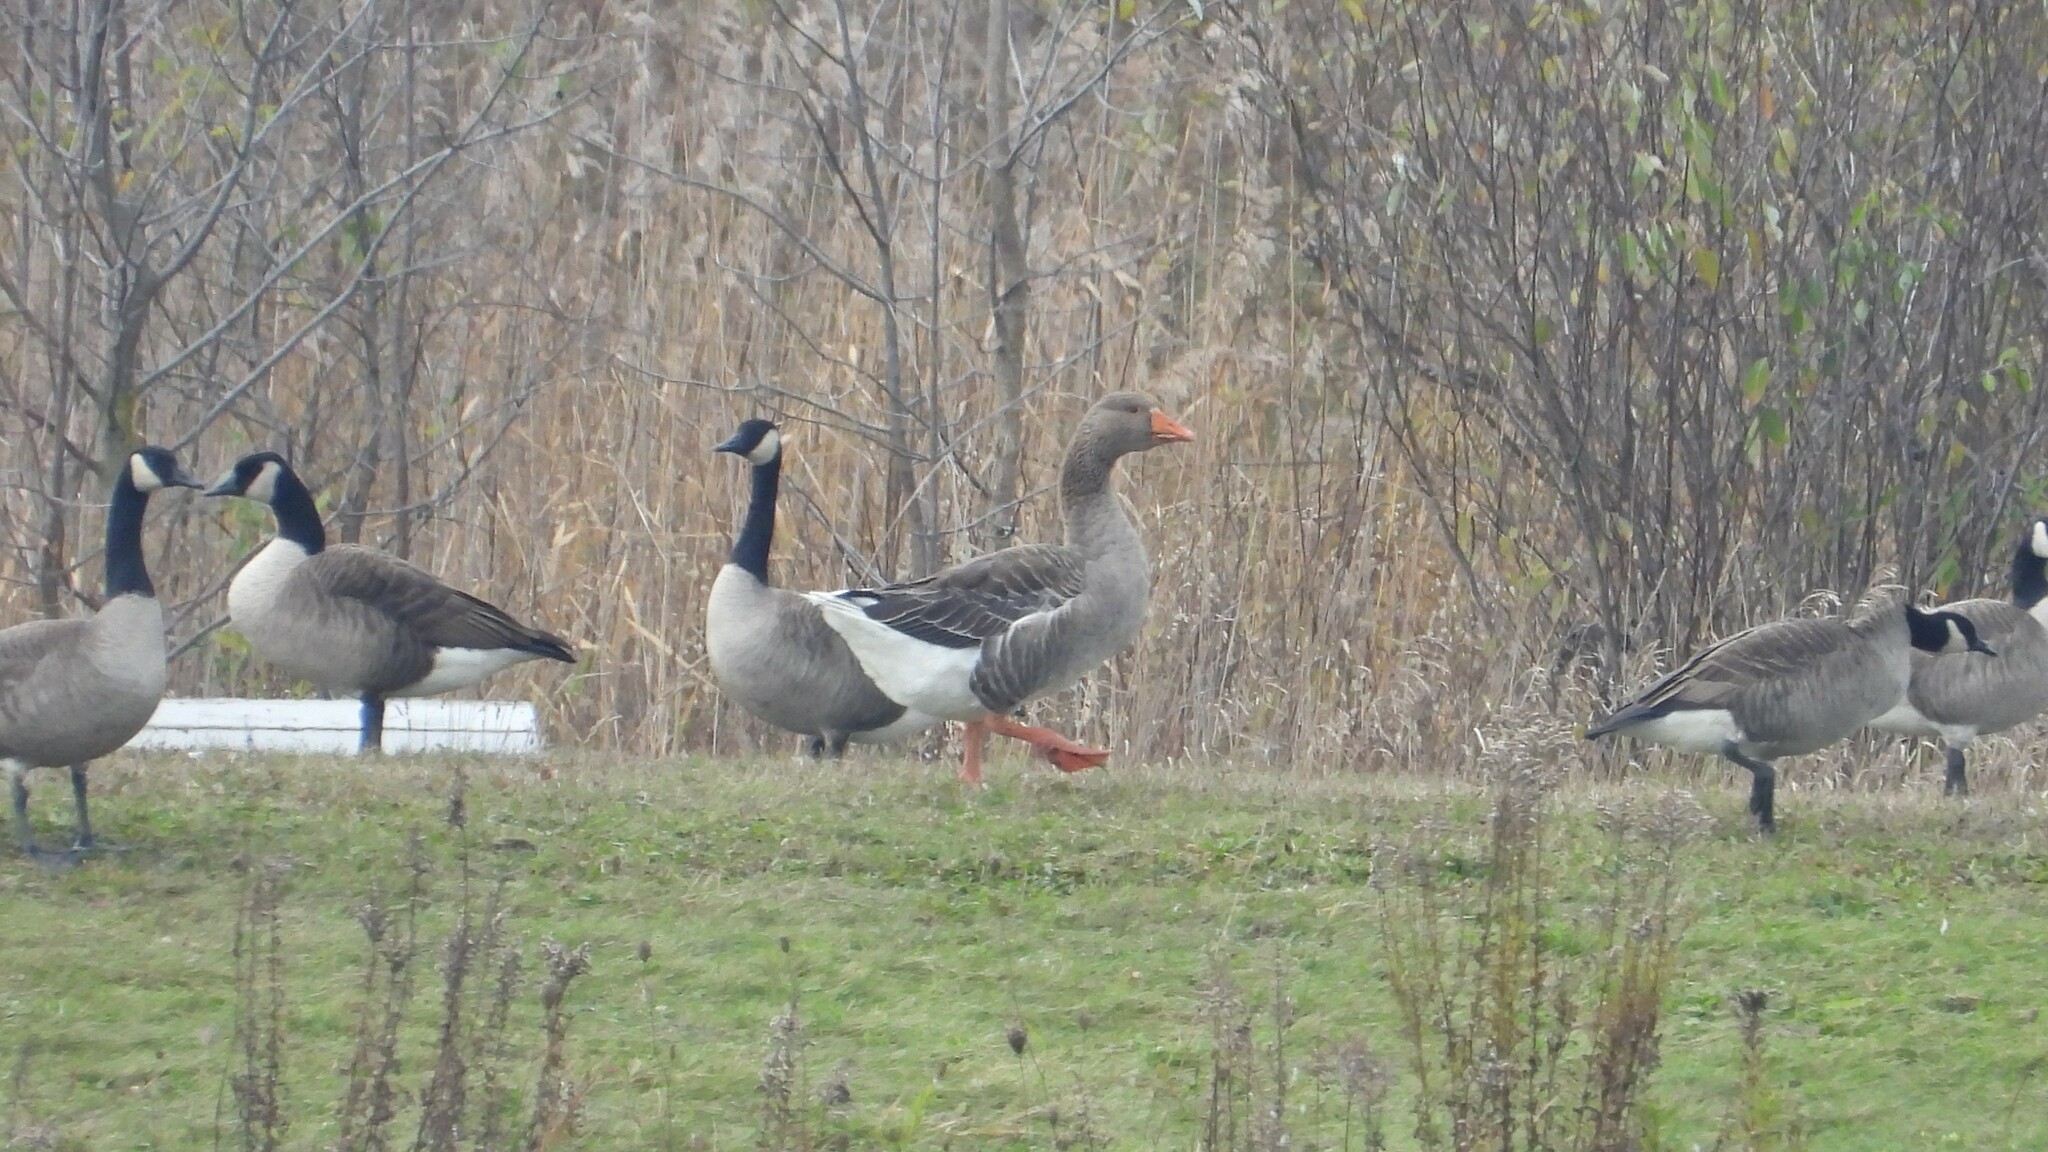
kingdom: Animalia
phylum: Chordata
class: Aves
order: Anseriformes
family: Anatidae
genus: Anser
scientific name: Anser anser
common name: Greylag goose
